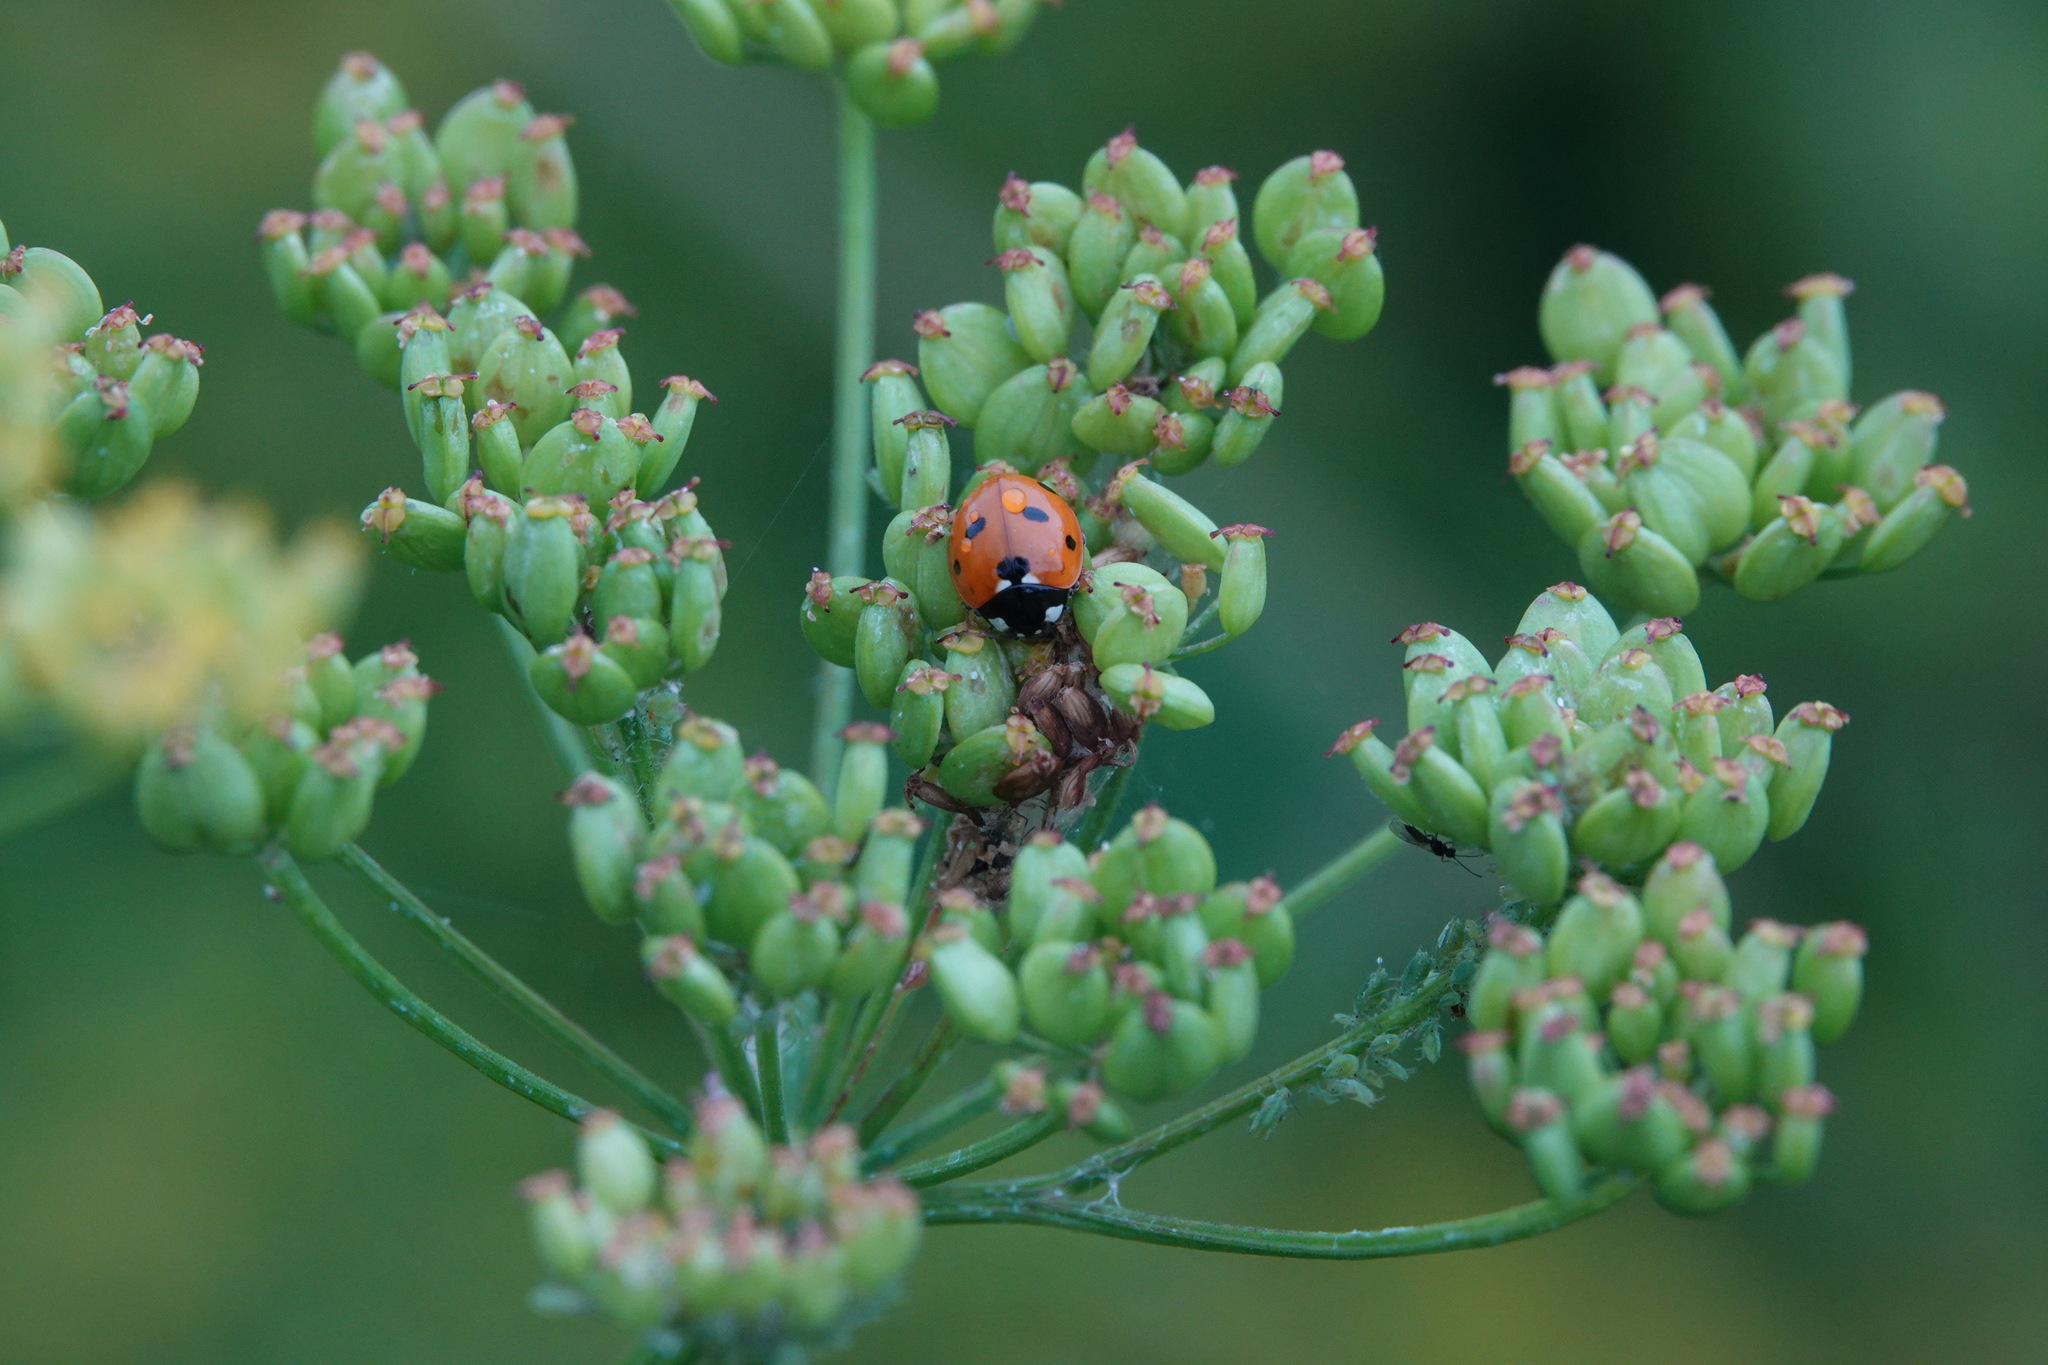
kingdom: Animalia
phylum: Arthropoda
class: Insecta
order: Coleoptera
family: Coccinellidae
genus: Coccinella
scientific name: Coccinella septempunctata
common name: Sevenspotted lady beetle
